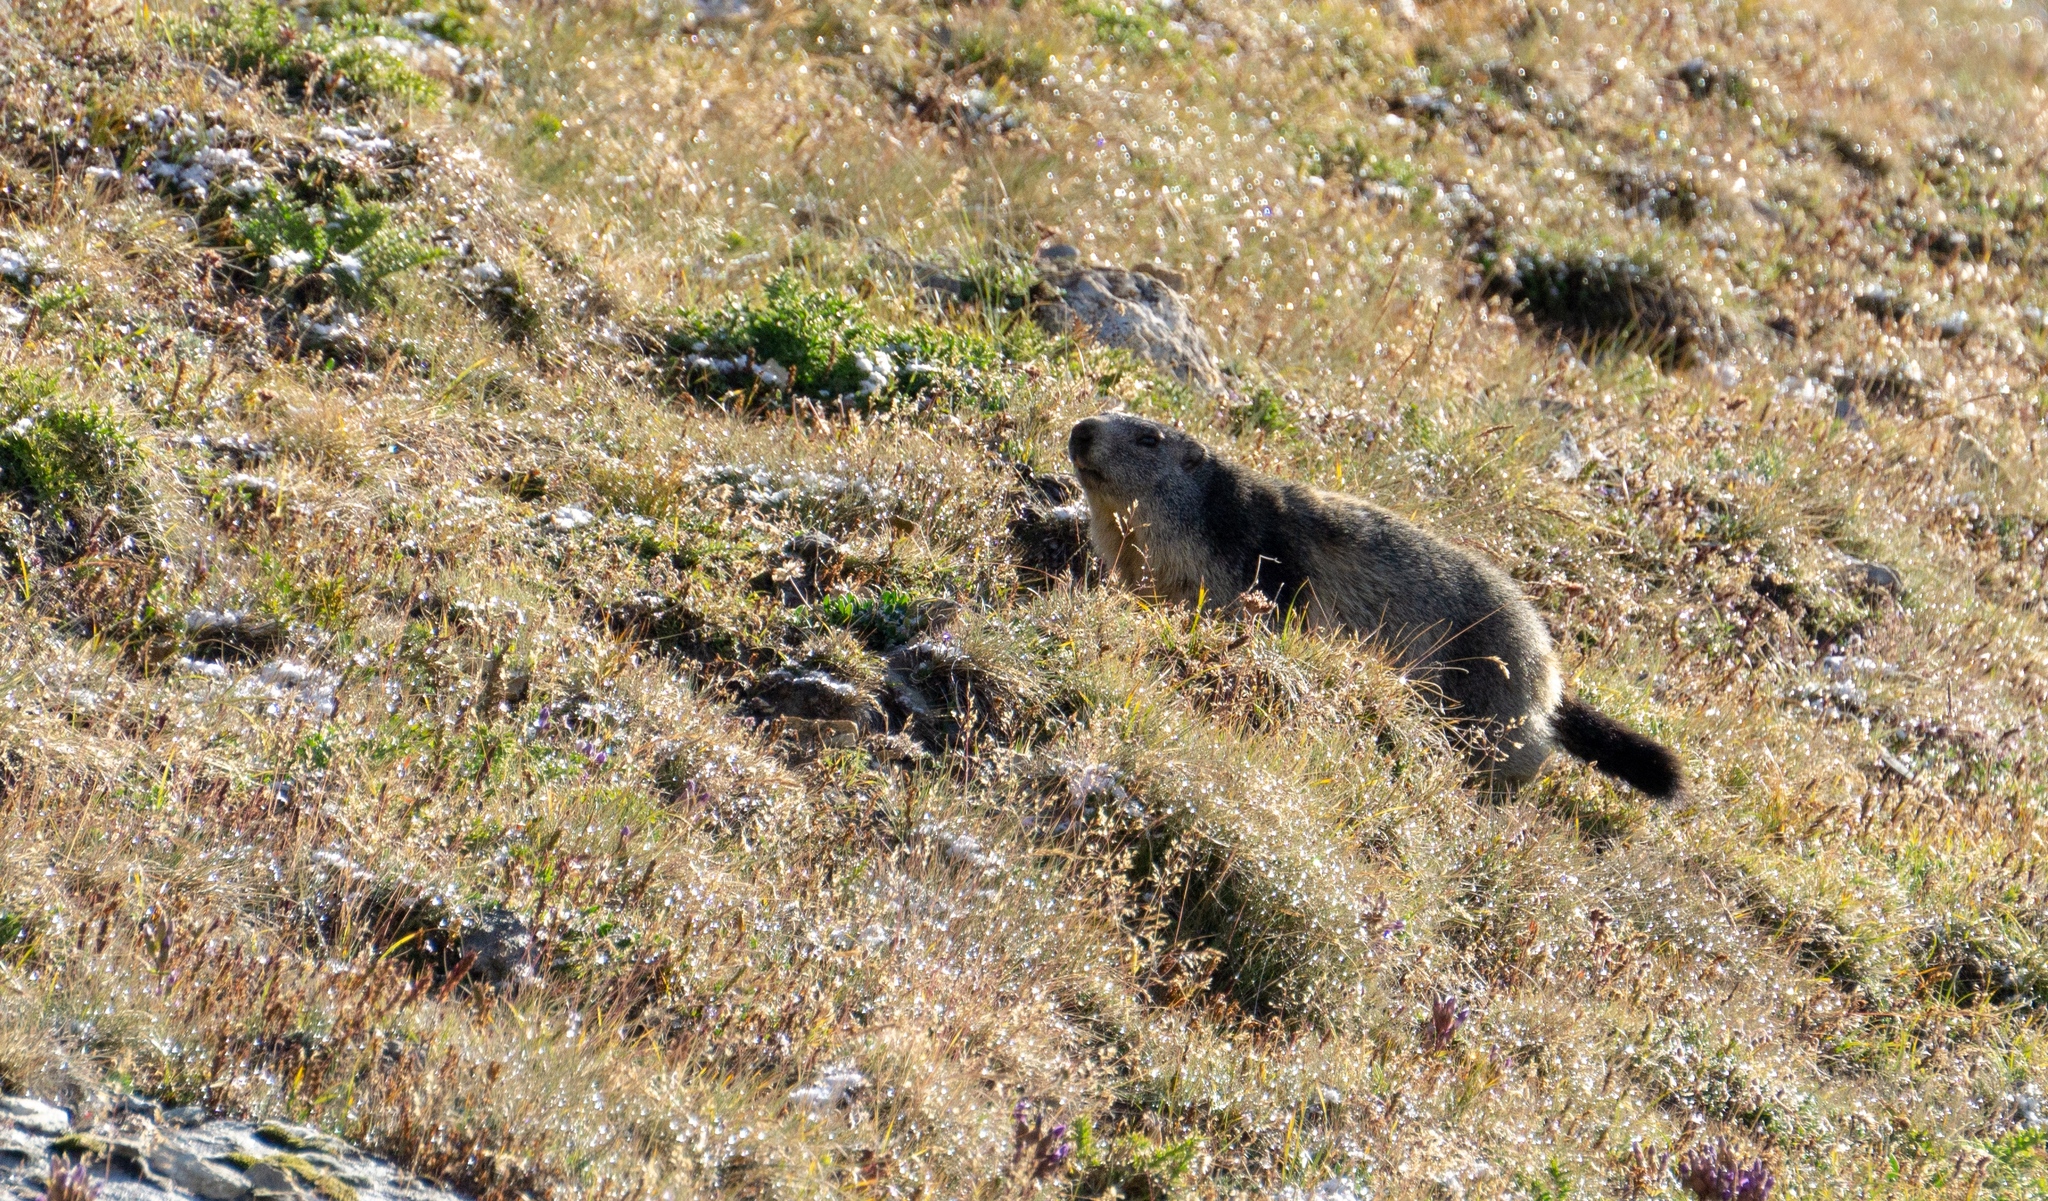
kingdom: Animalia
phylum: Chordata
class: Mammalia
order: Rodentia
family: Sciuridae
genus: Marmota
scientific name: Marmota marmota
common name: Alpine marmot
